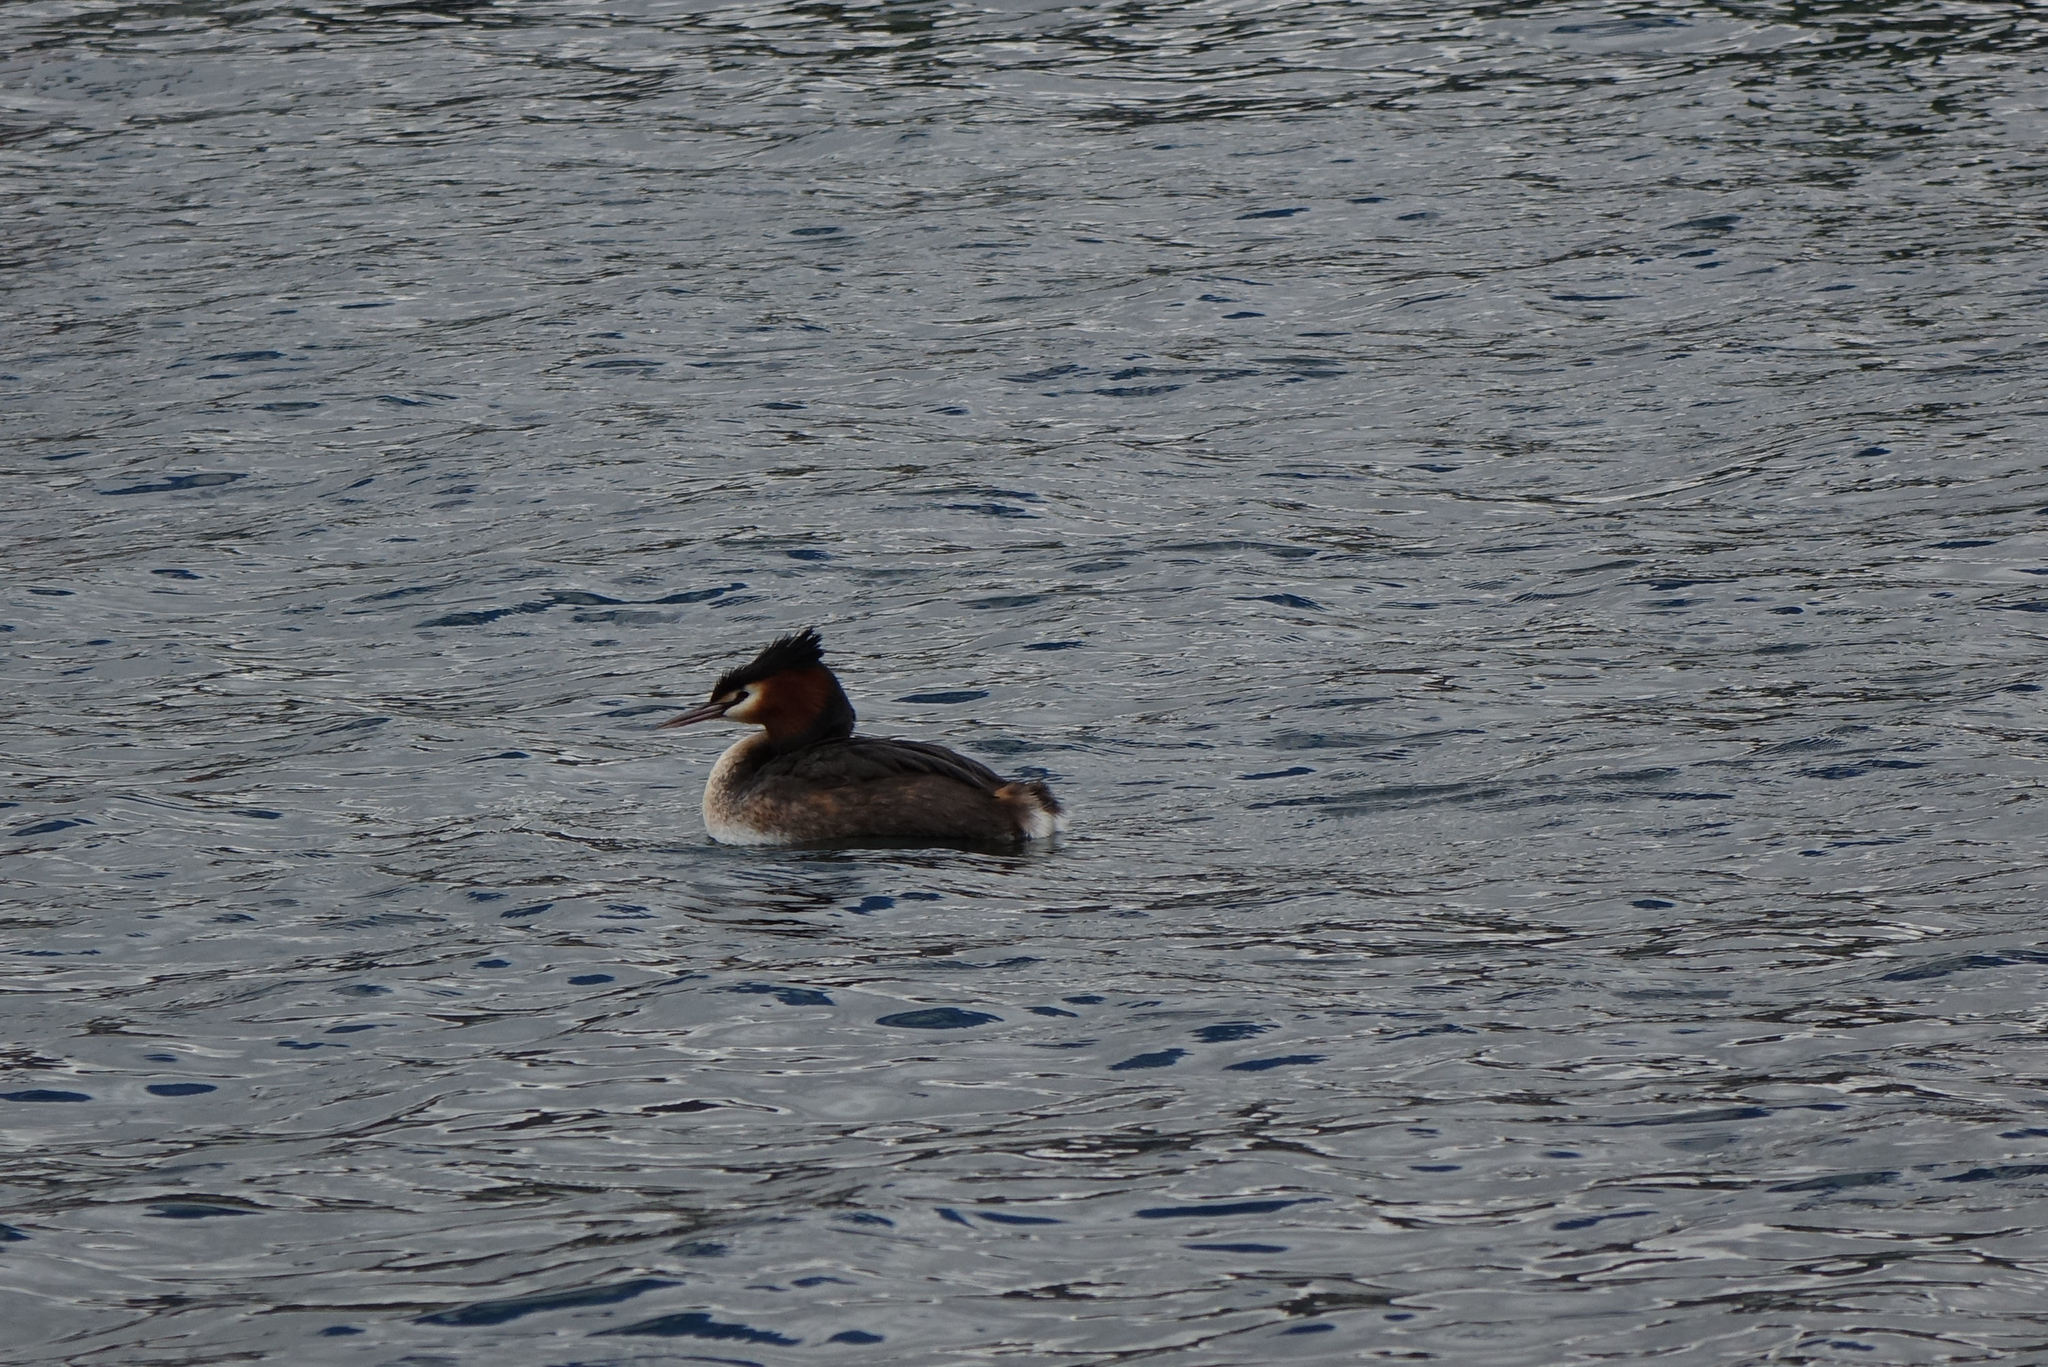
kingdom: Animalia
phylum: Chordata
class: Aves
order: Podicipediformes
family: Podicipedidae
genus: Podiceps
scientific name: Podiceps cristatus
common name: Great crested grebe
